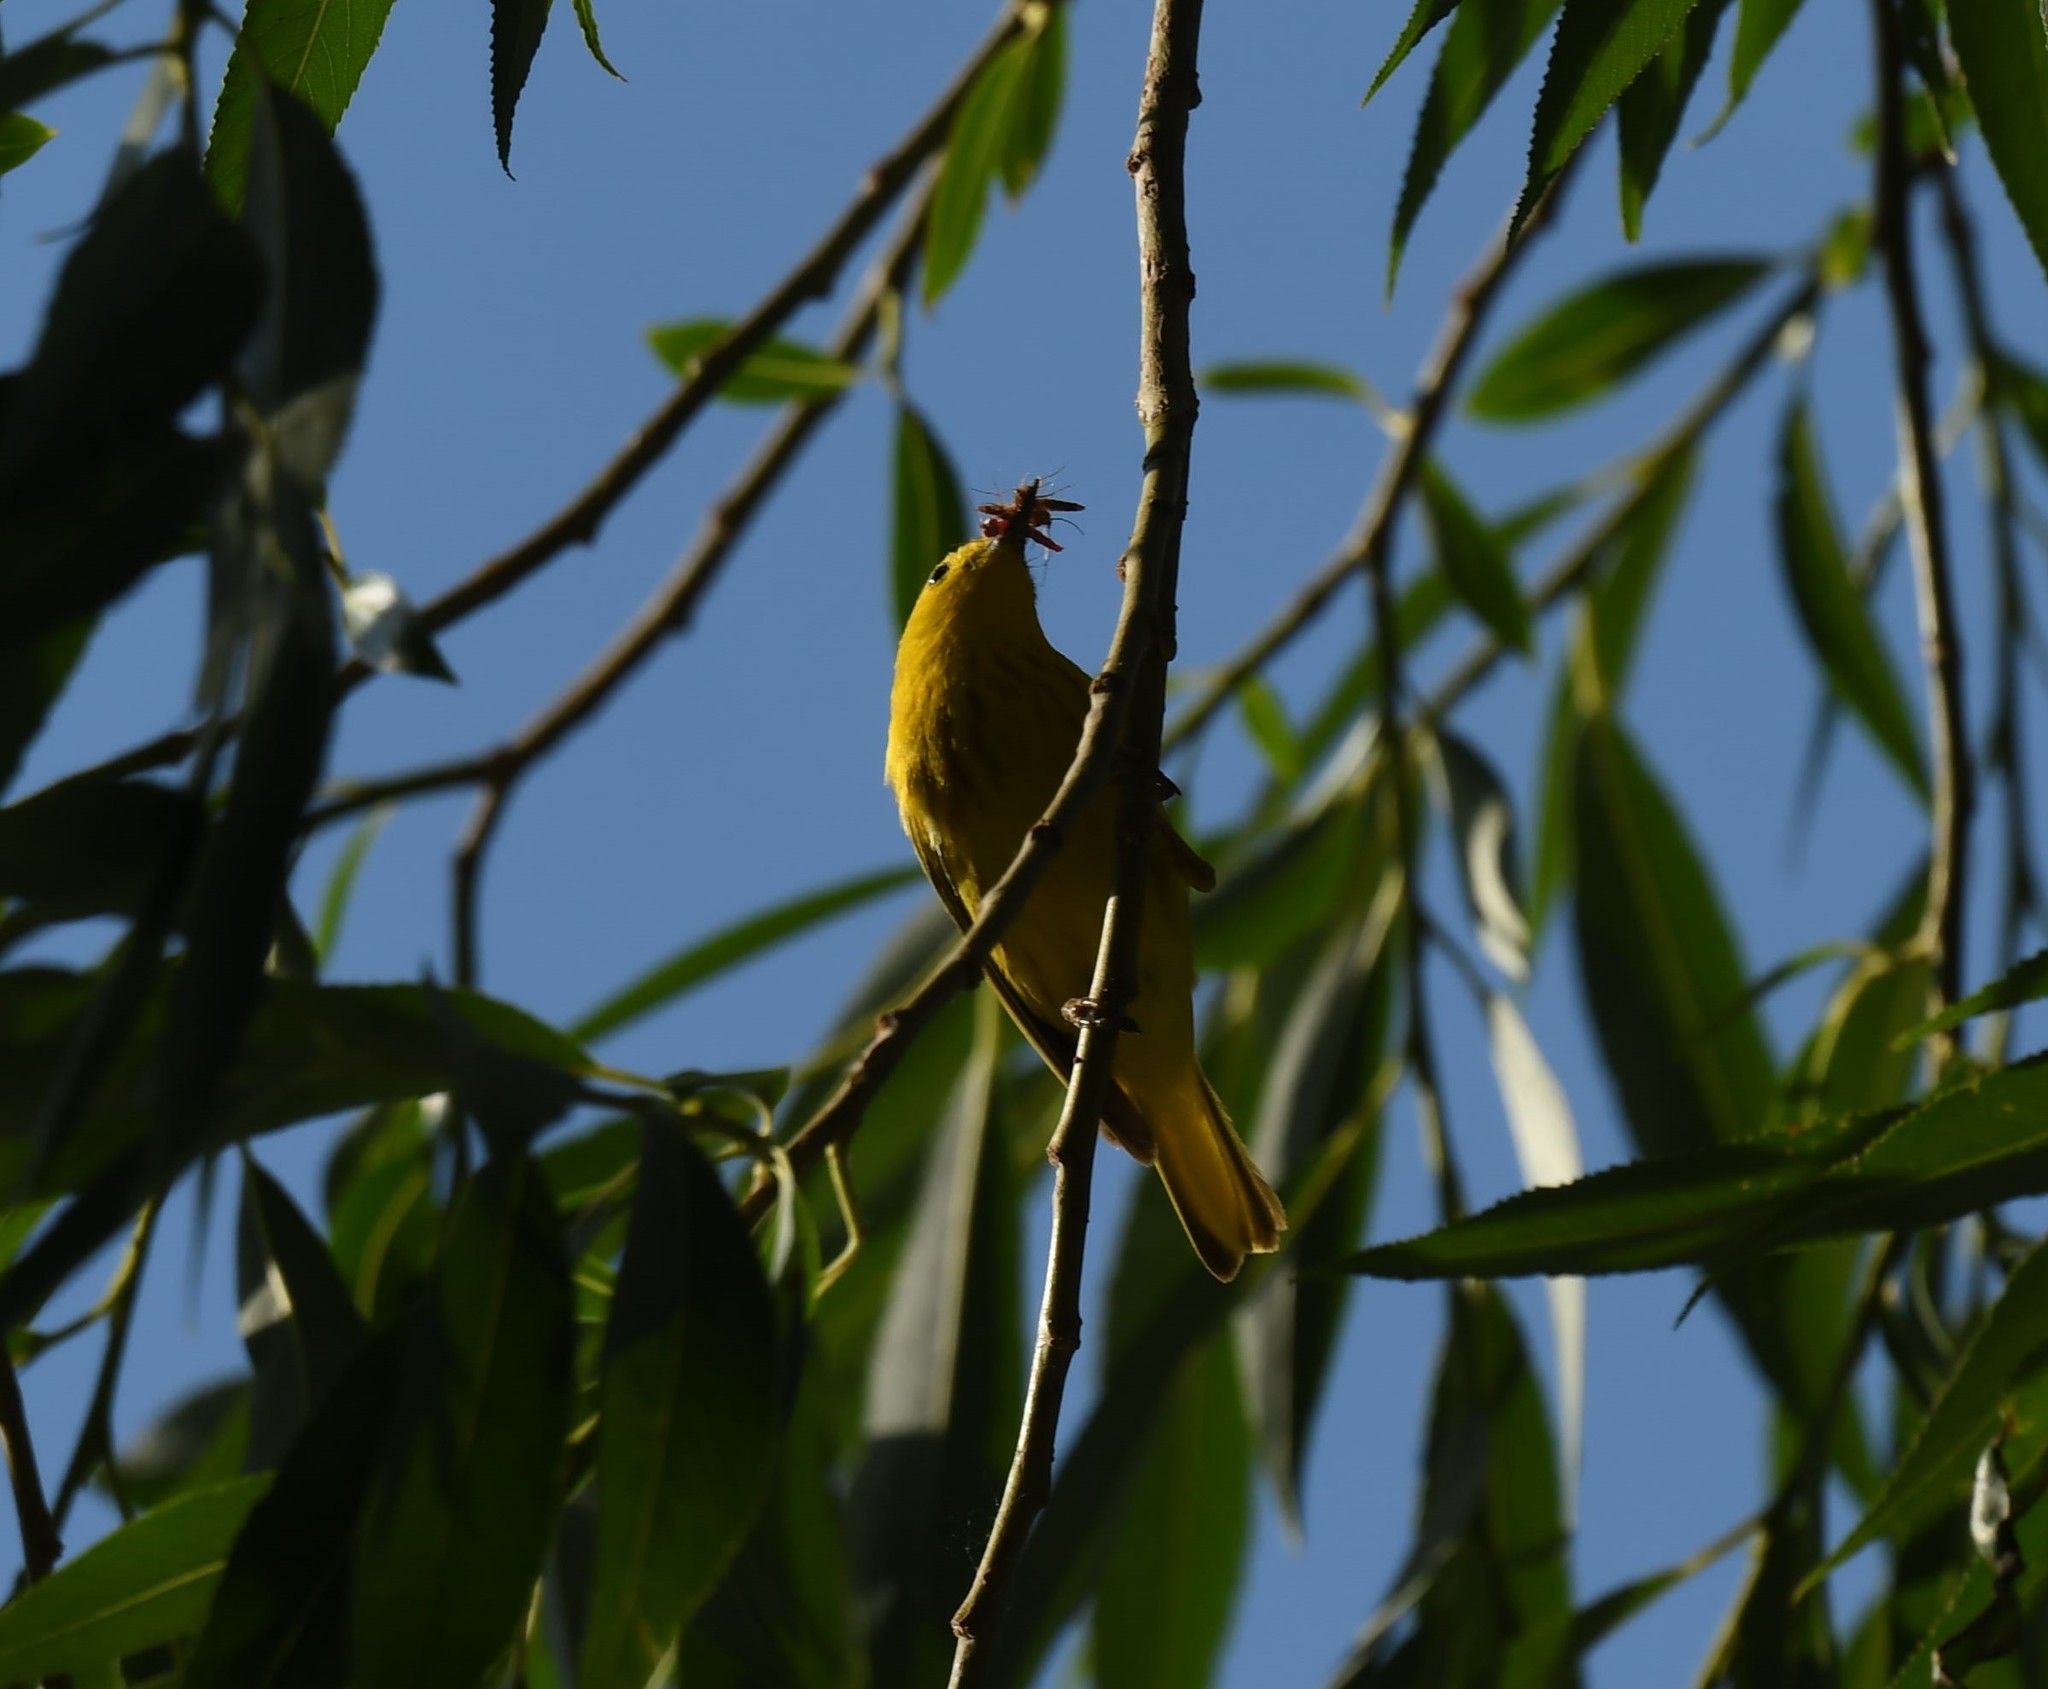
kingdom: Animalia
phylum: Chordata
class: Aves
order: Passeriformes
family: Parulidae
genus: Setophaga
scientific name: Setophaga petechia
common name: Yellow warbler
